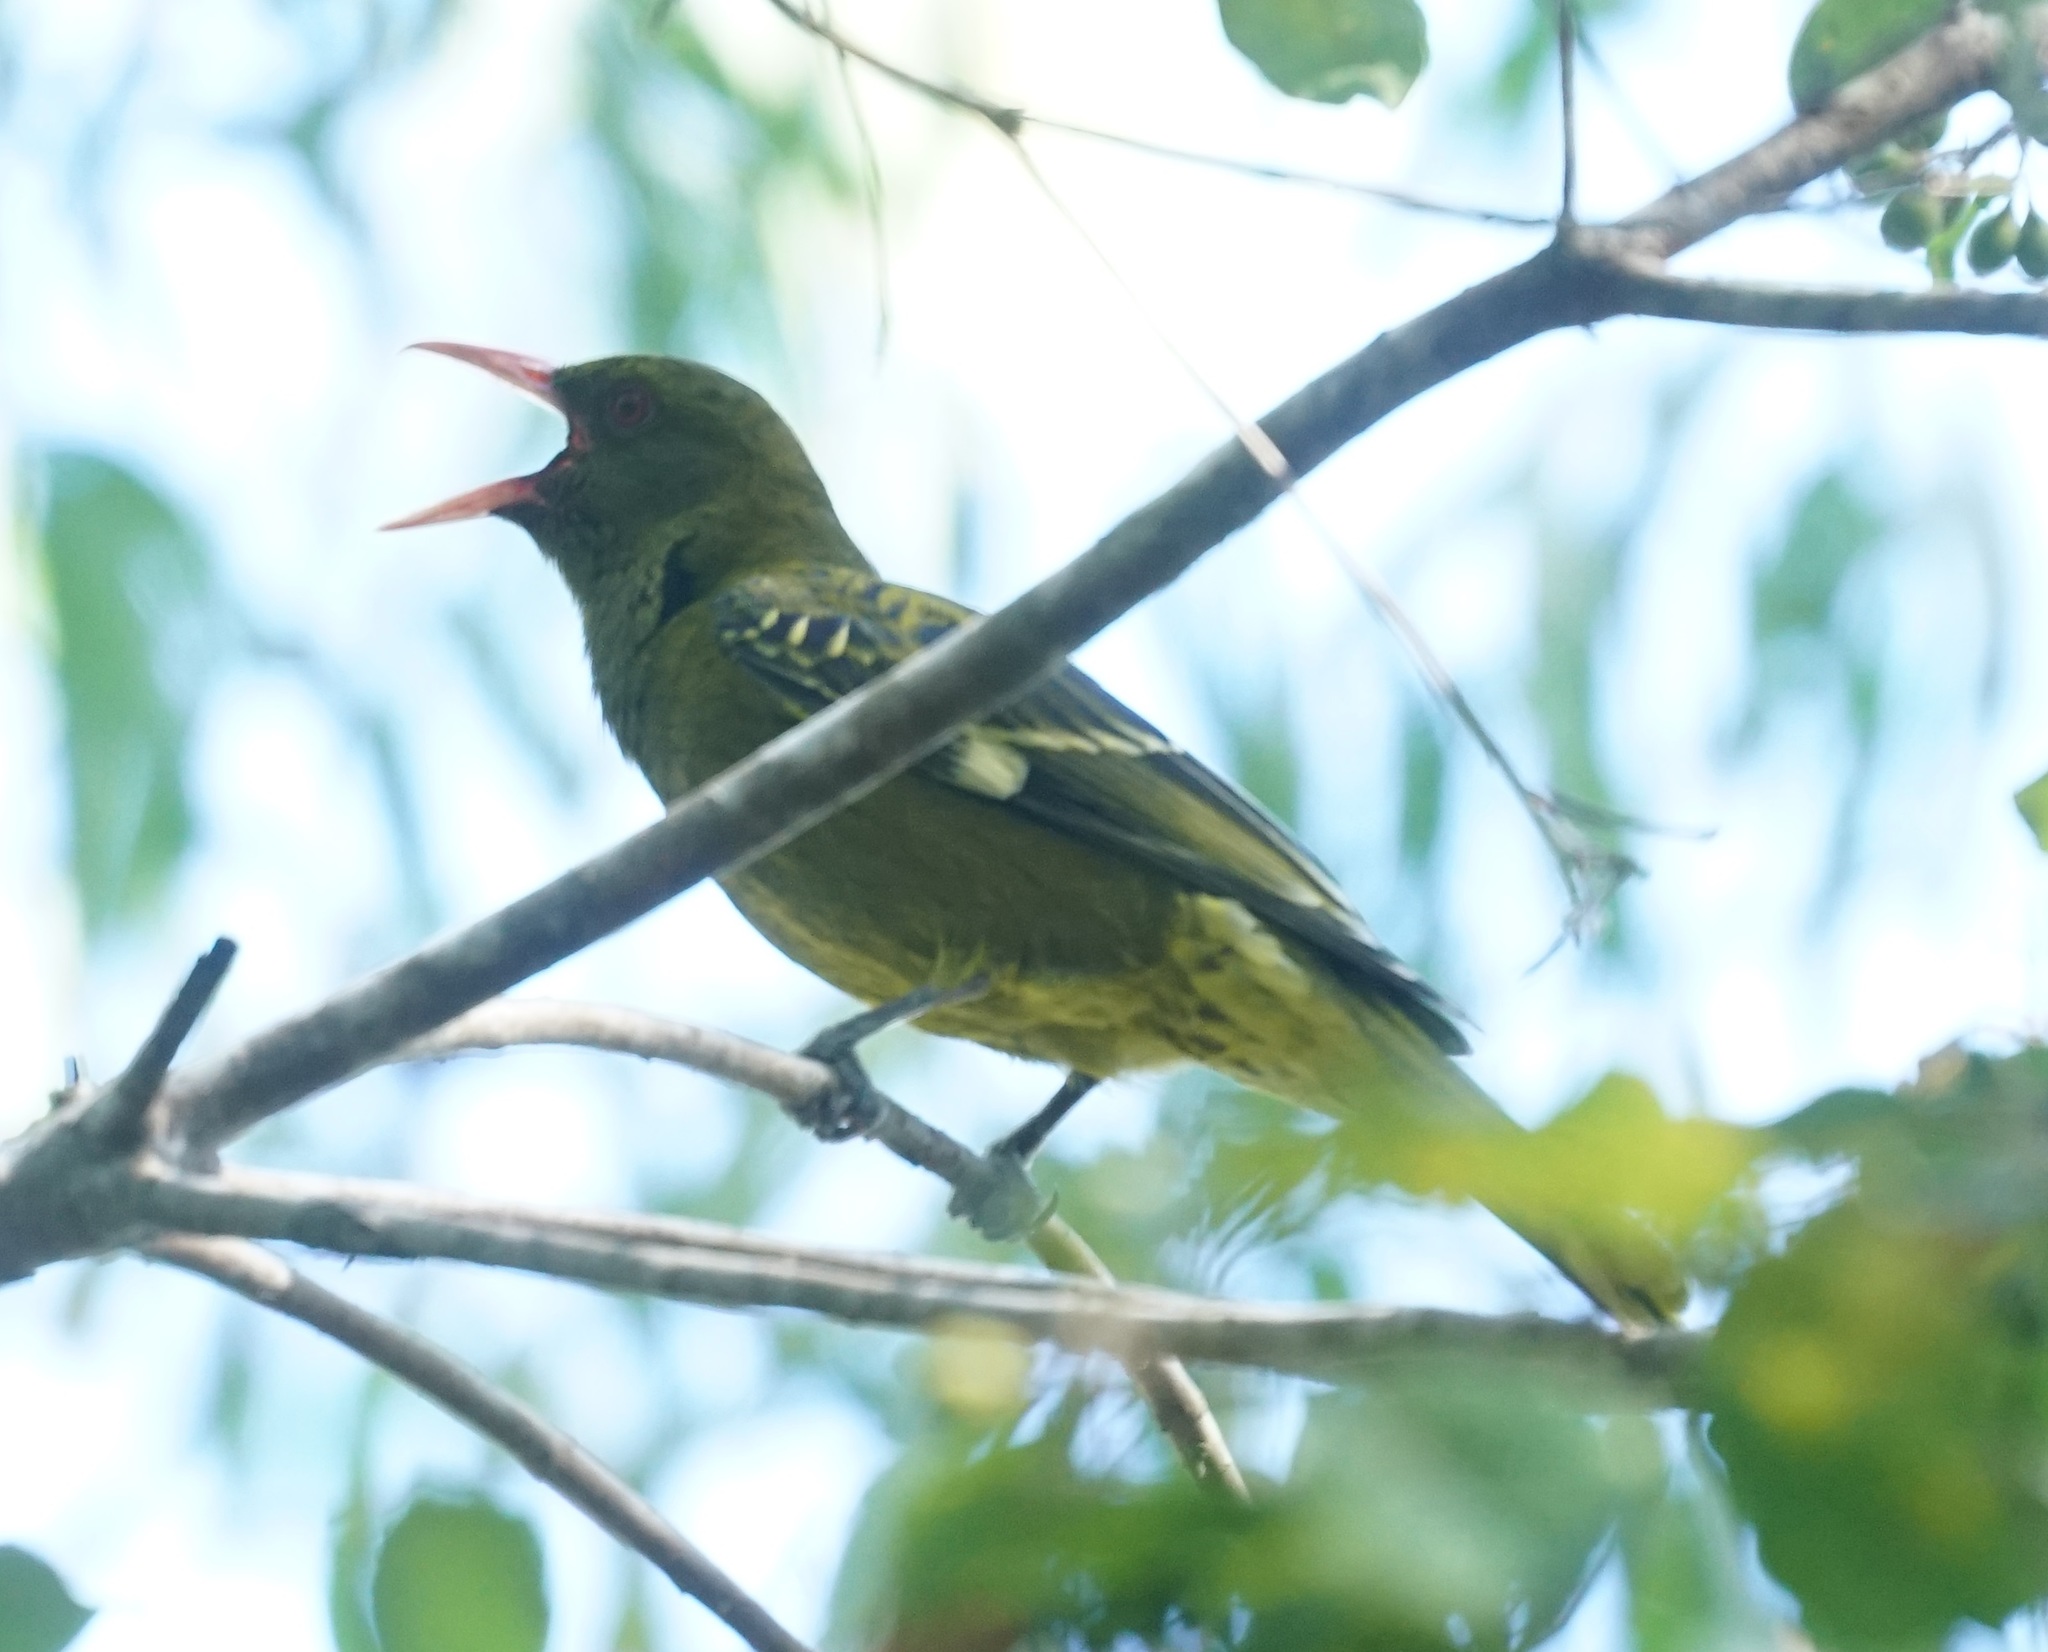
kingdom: Animalia
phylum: Chordata
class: Aves
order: Passeriformes
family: Oriolidae
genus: Oriolus
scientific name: Oriolus flavocinctus
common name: Green oriole
